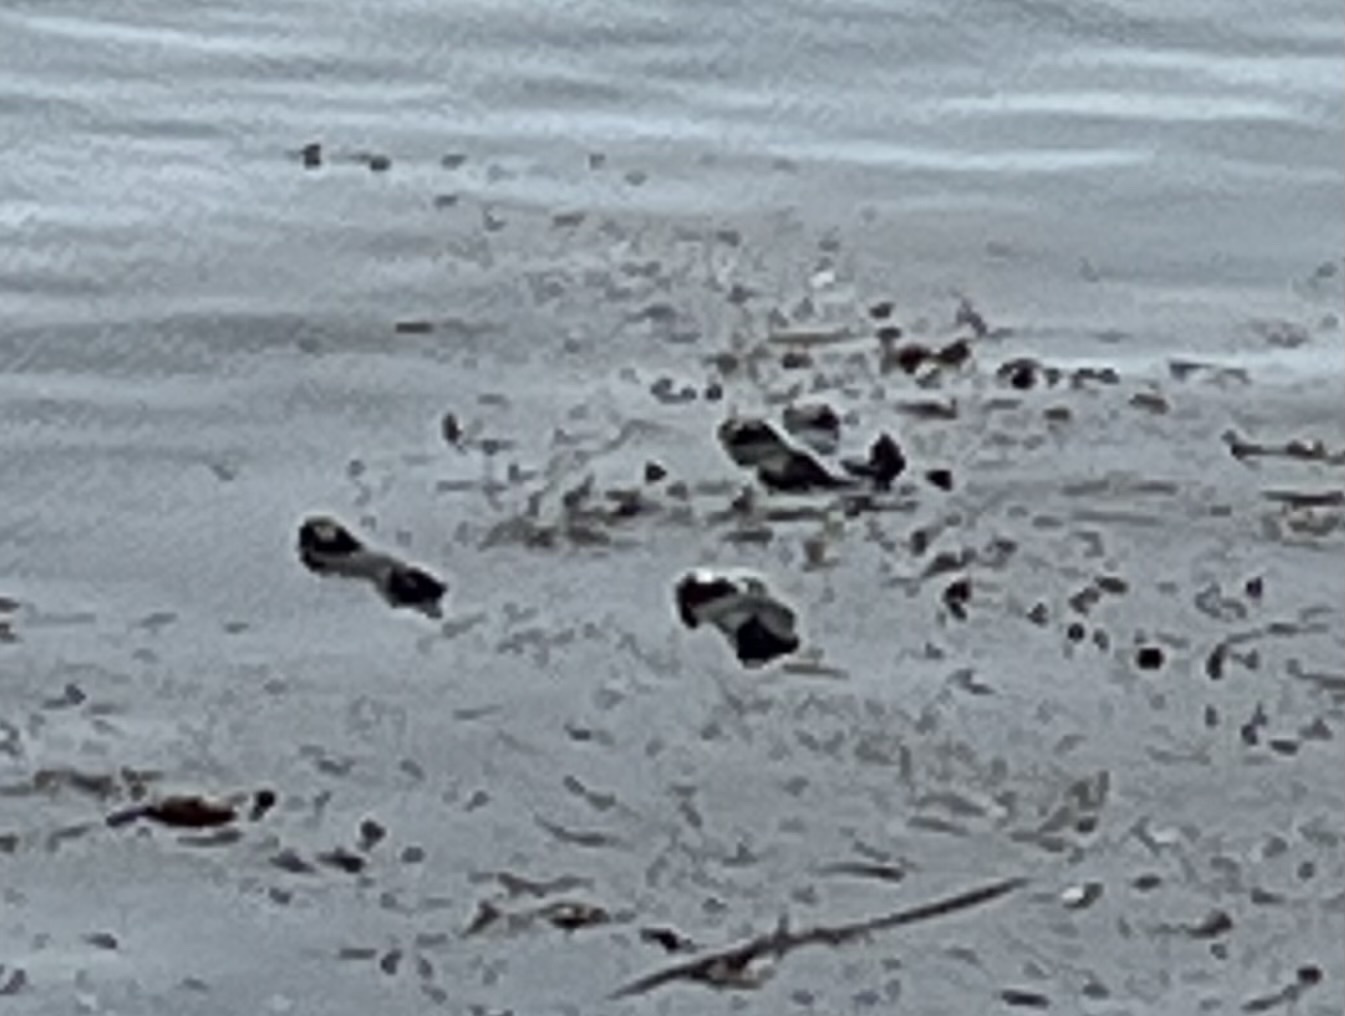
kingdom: Animalia
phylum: Chordata
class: Mammalia
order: Carnivora
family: Mustelidae
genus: Enhydra
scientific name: Enhydra lutris
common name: Sea otter
